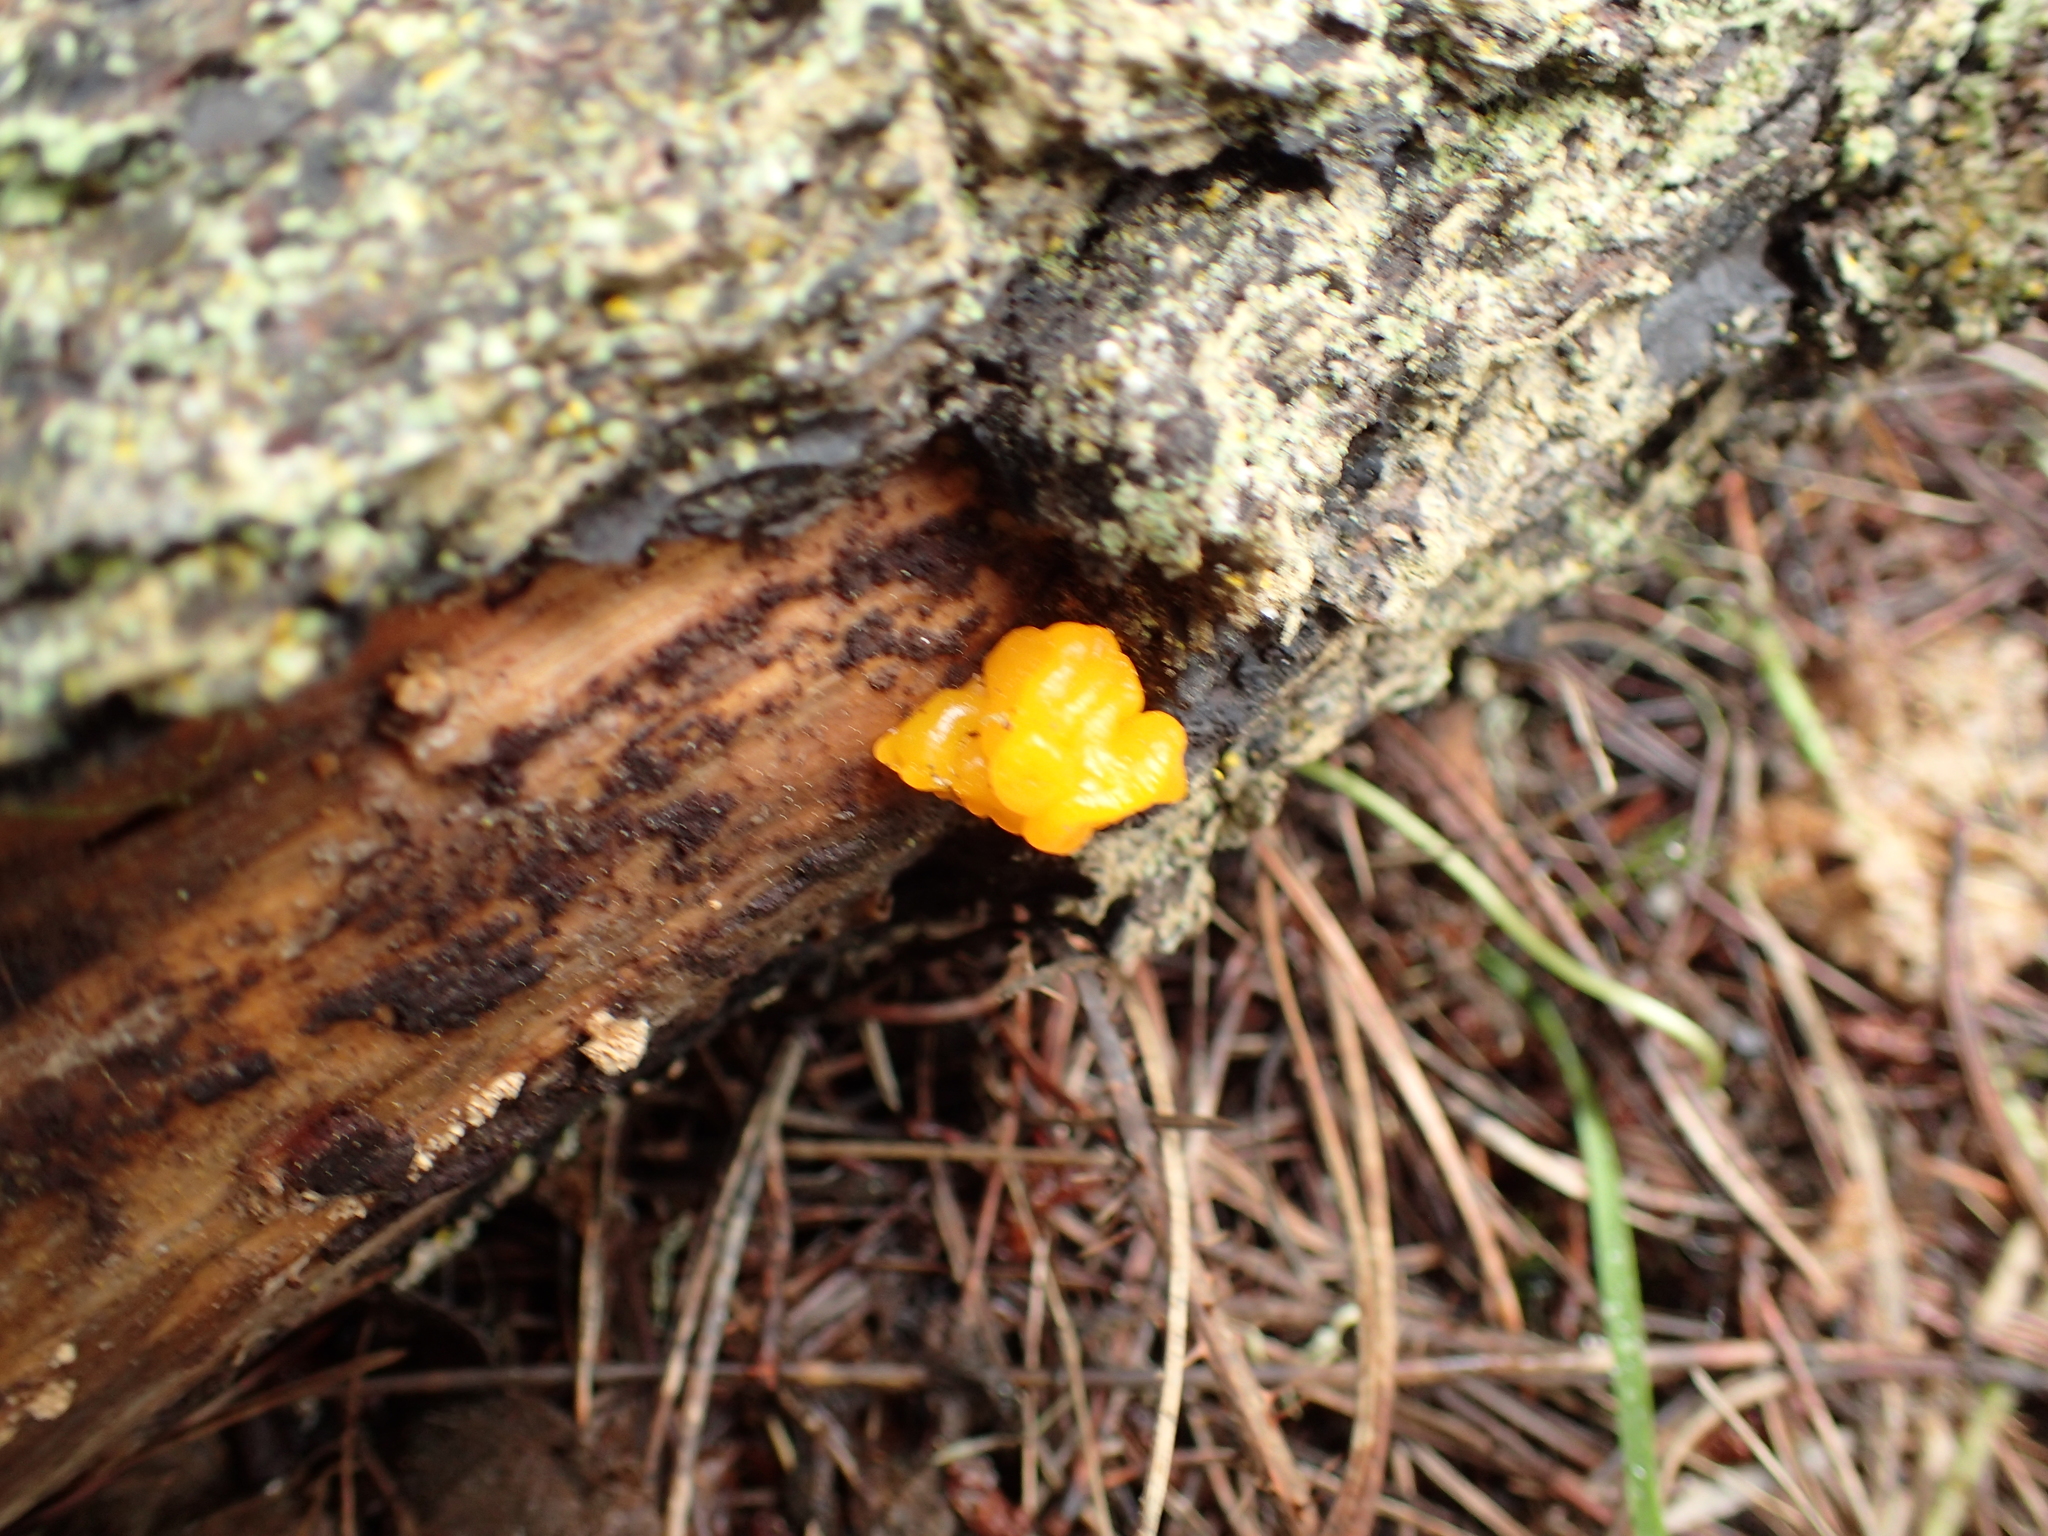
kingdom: Fungi
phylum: Basidiomycota
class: Tremellomycetes
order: Tremellales
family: Tremellaceae
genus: Tremella
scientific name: Tremella mesenterica
